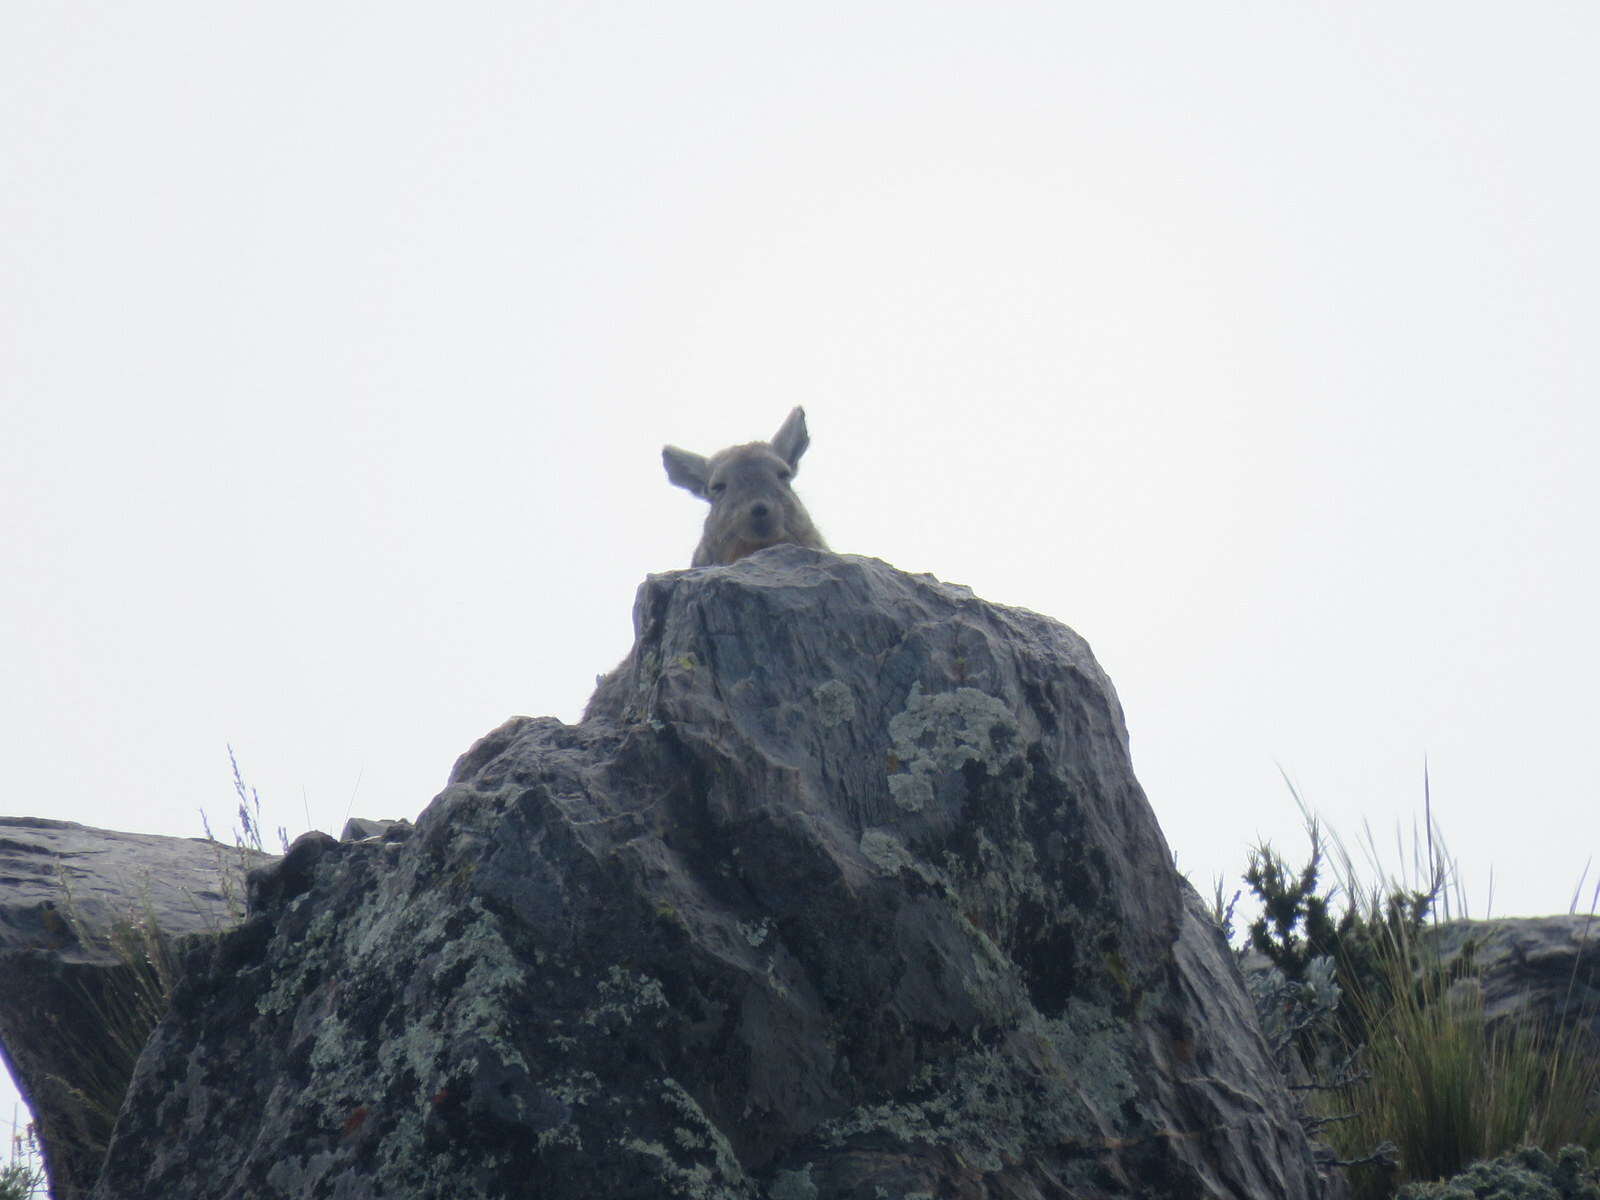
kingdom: Animalia
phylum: Chordata
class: Mammalia
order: Rodentia
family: Chinchillidae
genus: Lagidium
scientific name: Lagidium viscacia
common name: Southern viscacha
